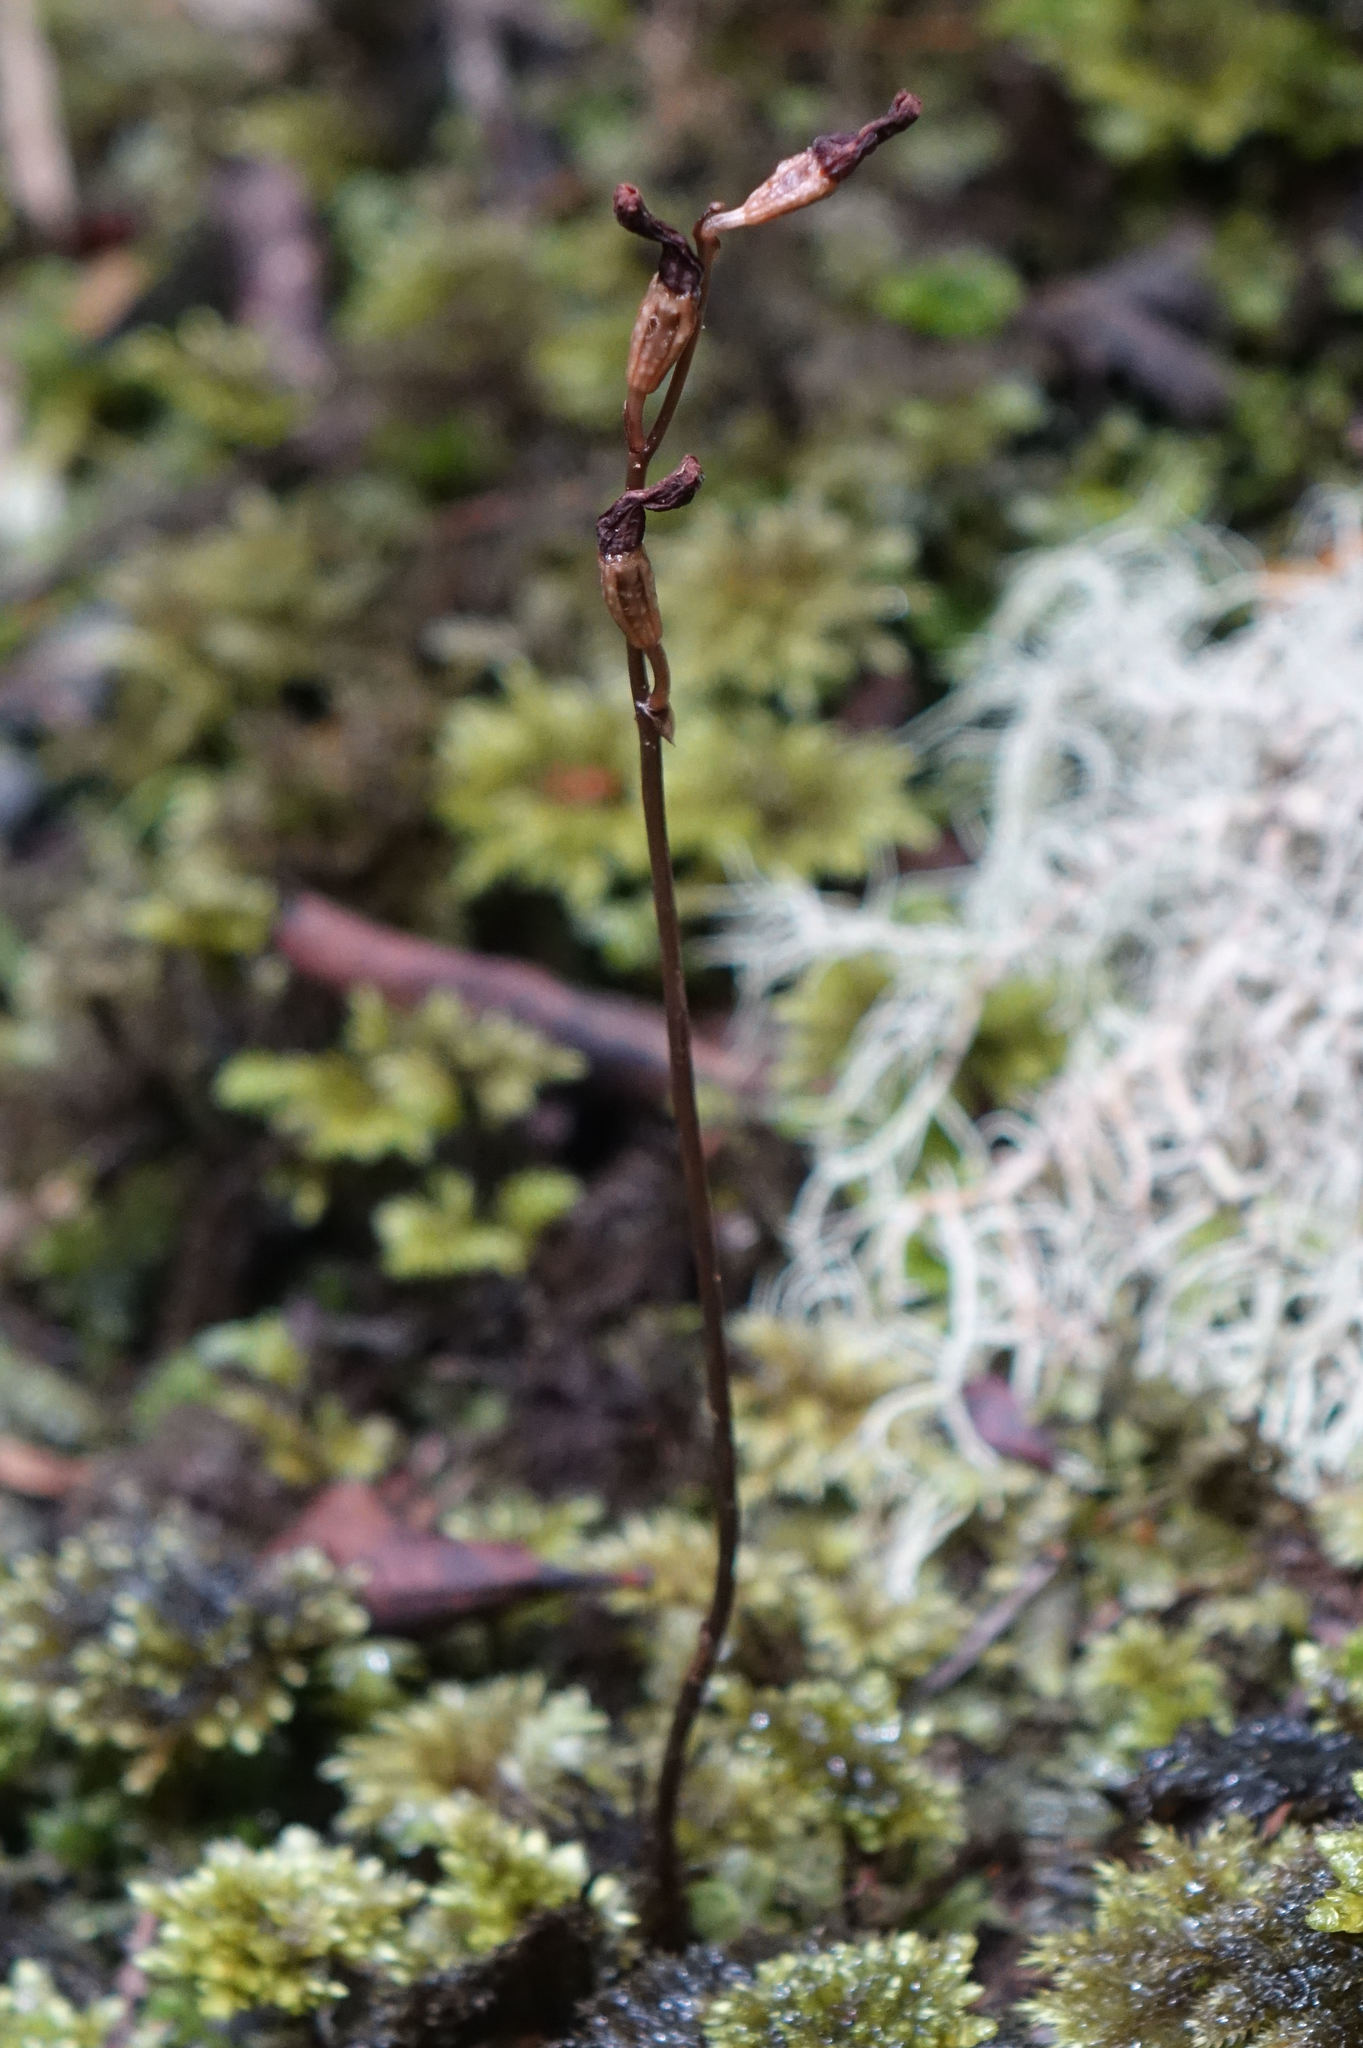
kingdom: Plantae
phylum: Tracheophyta
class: Liliopsida
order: Asparagales
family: Orchidaceae
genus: Gastrodia
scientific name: Gastrodia minor
